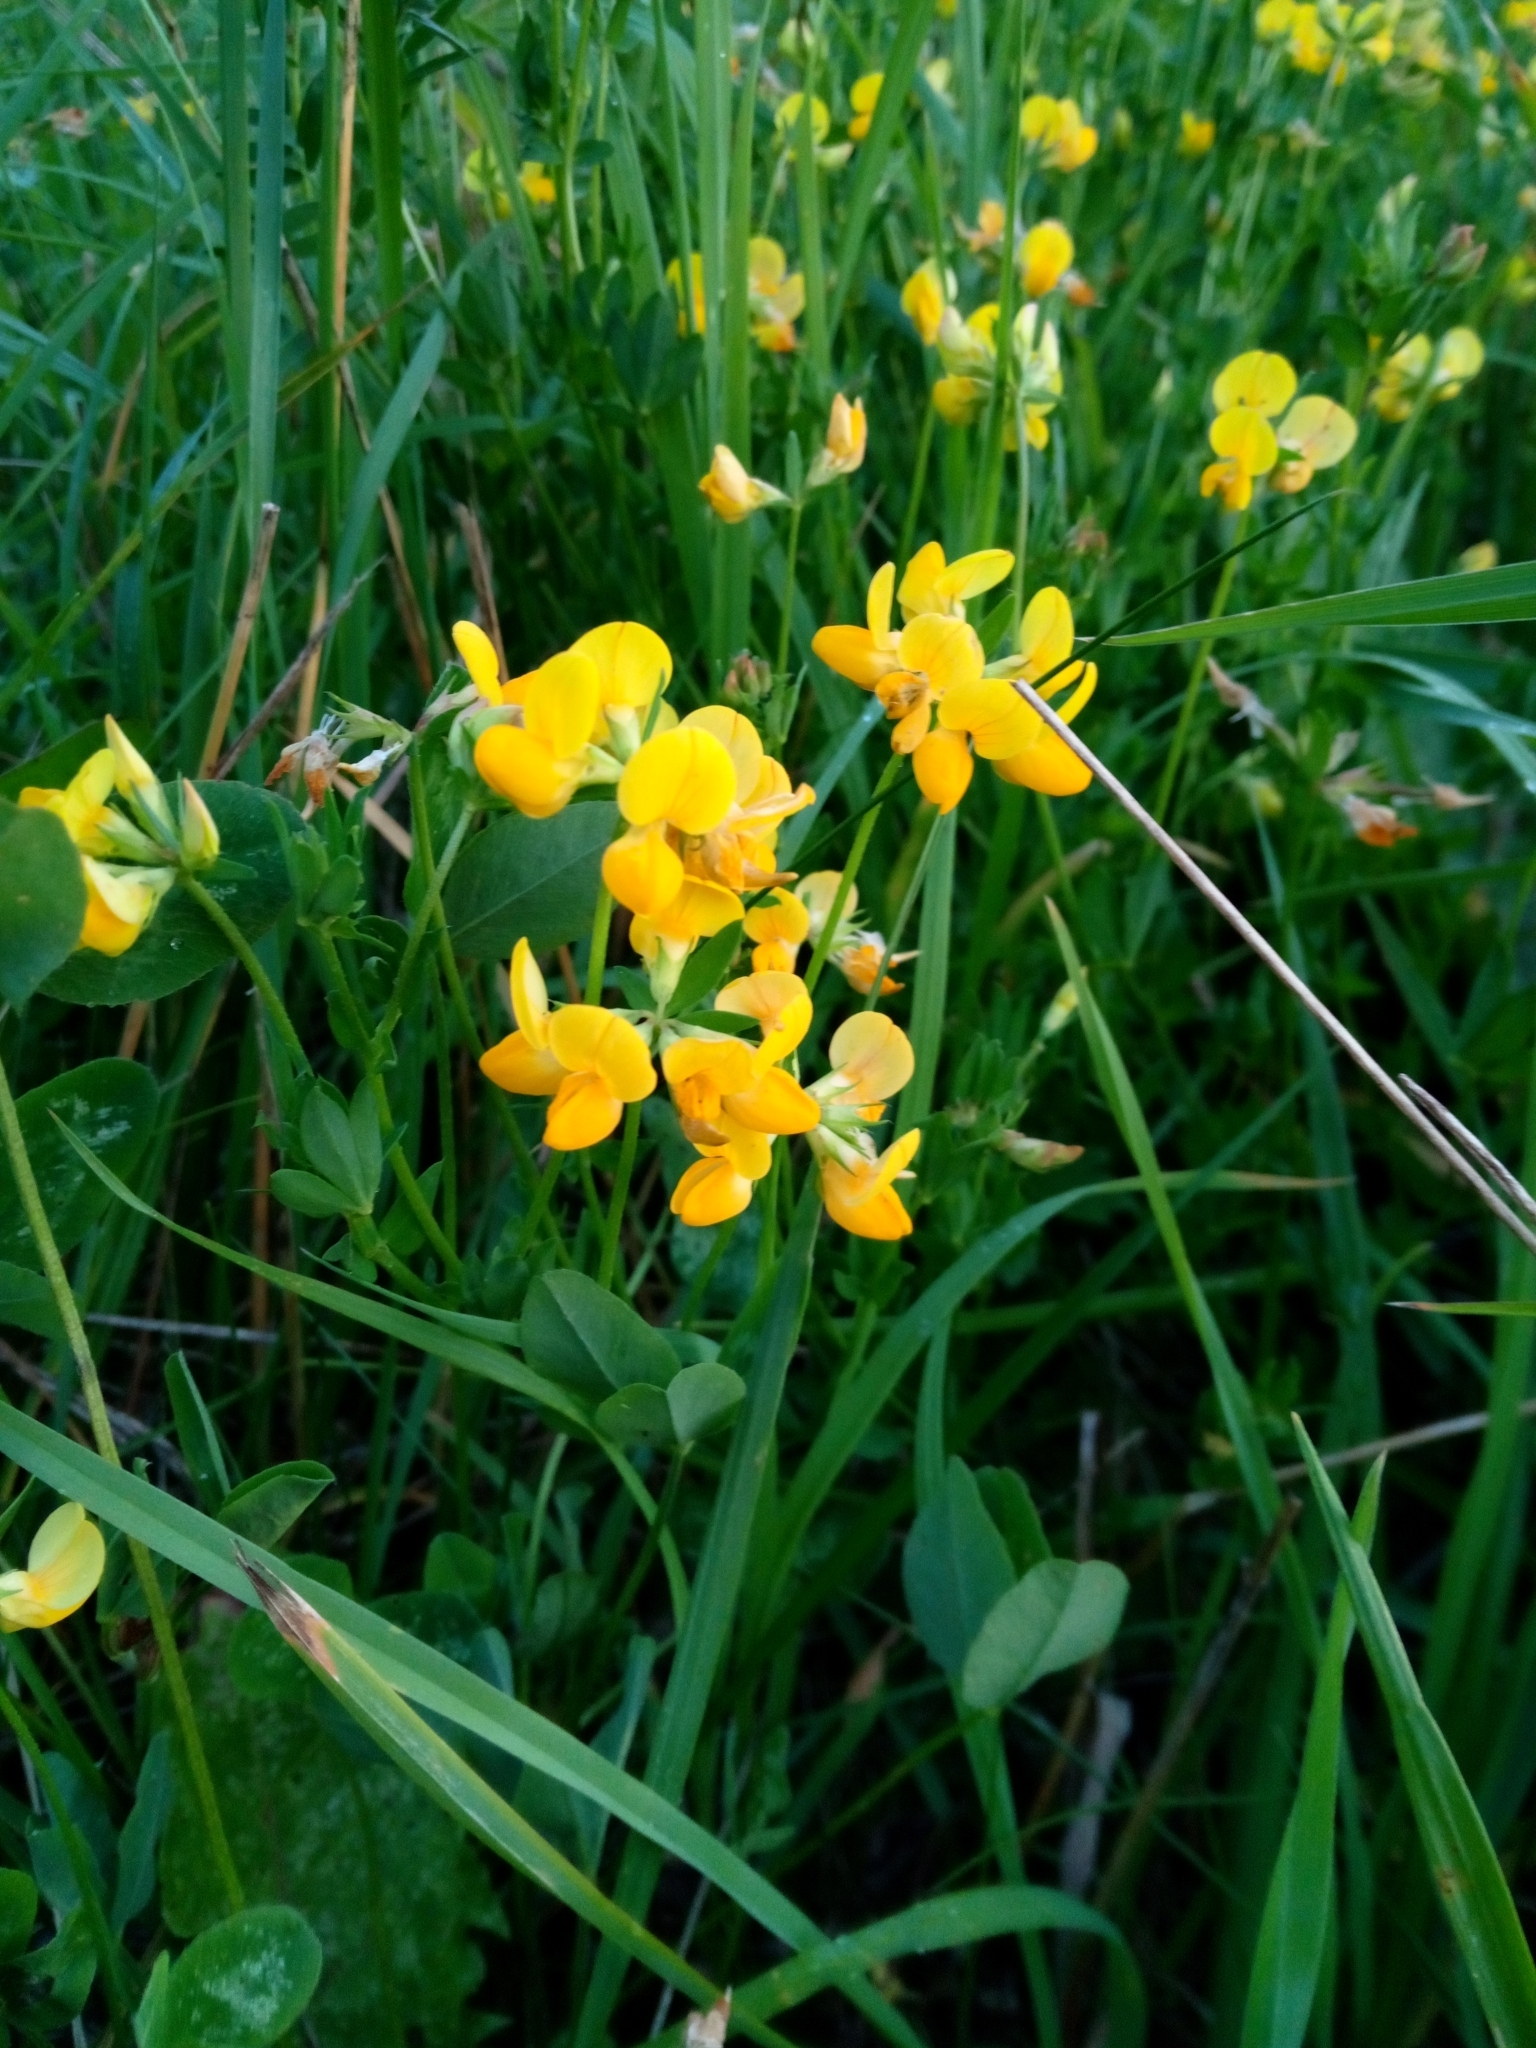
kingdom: Plantae
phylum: Tracheophyta
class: Magnoliopsida
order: Fabales
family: Fabaceae
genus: Lotus
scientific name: Lotus corniculatus
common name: Common bird's-foot-trefoil
